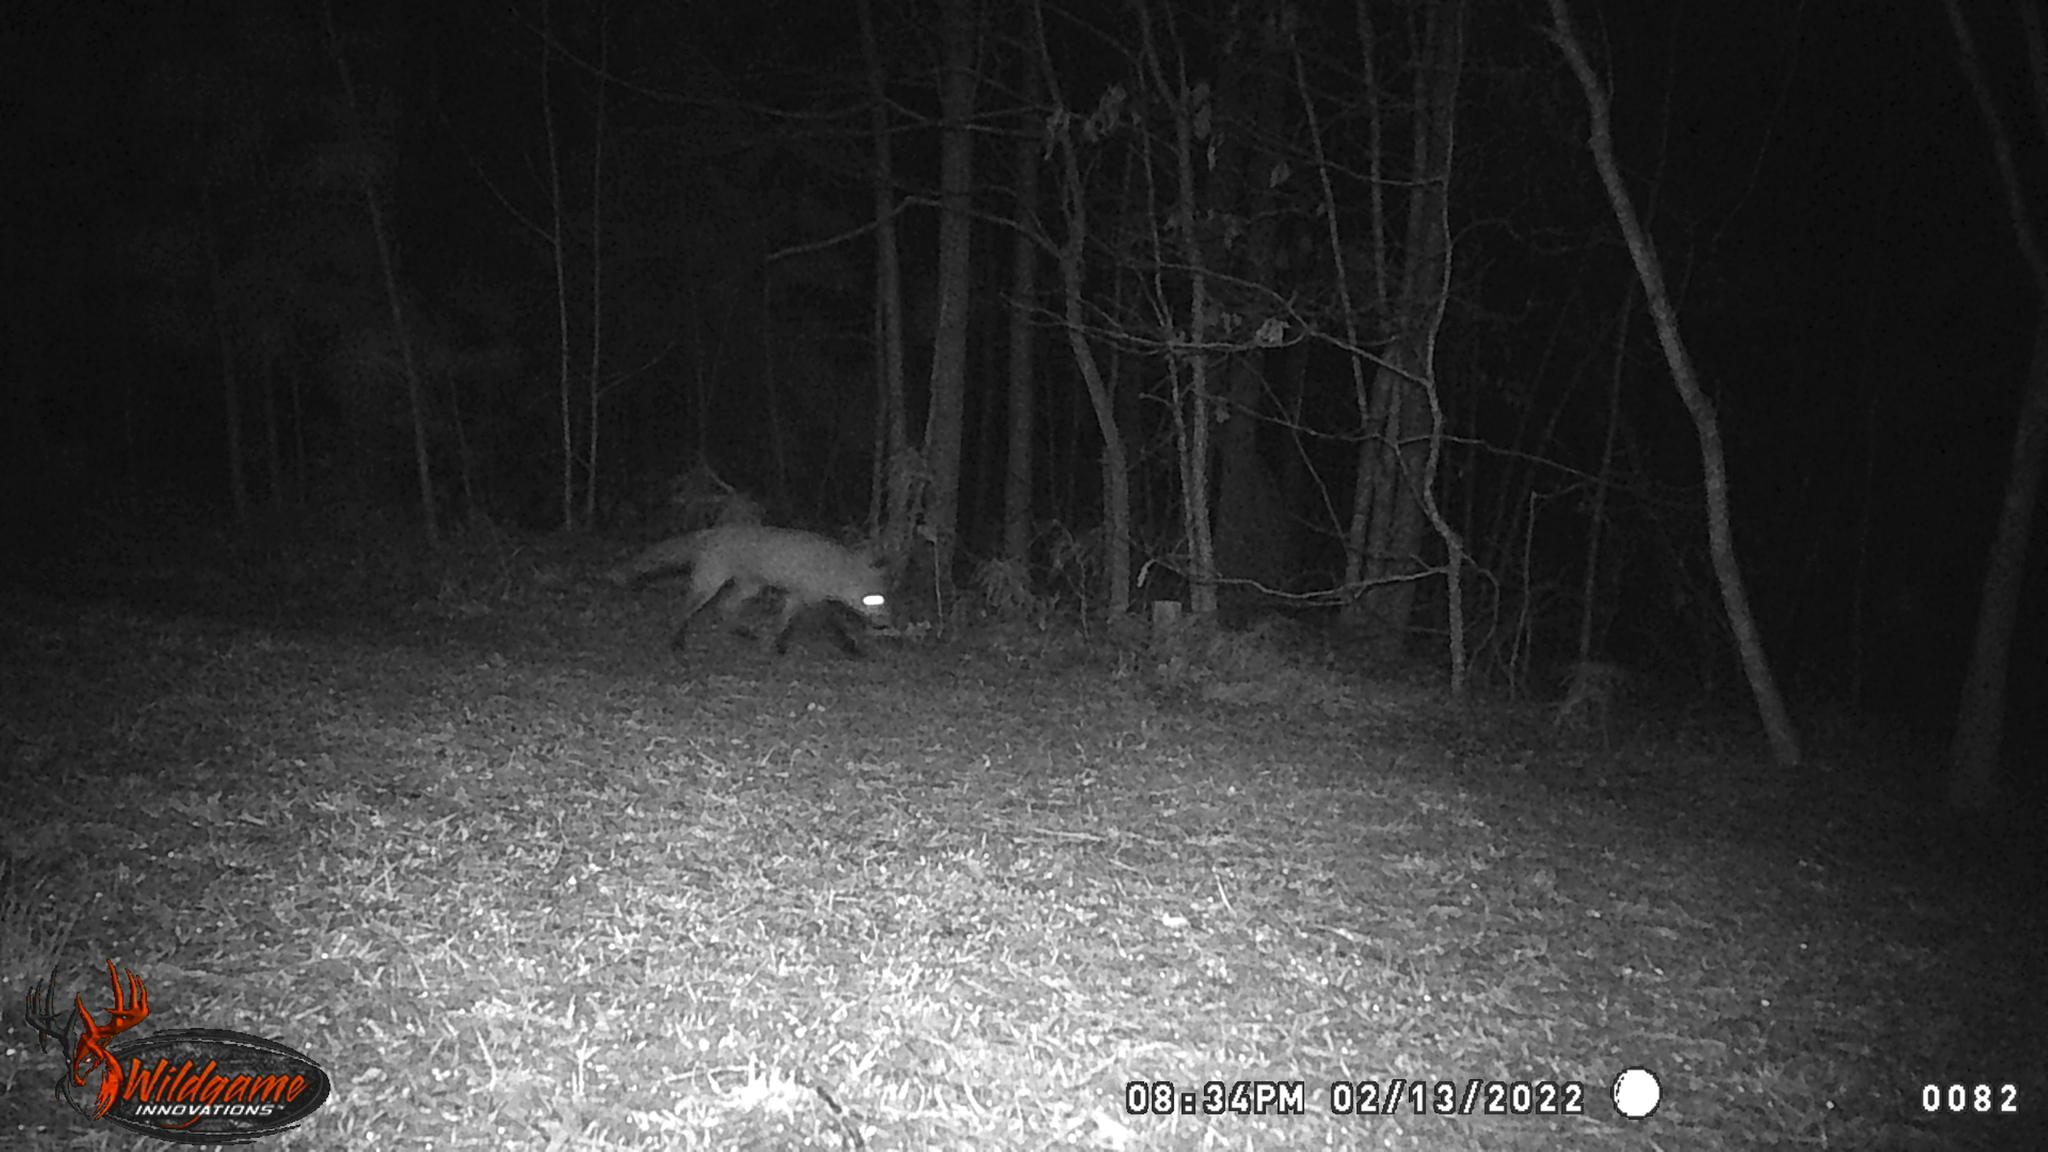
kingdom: Animalia
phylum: Chordata
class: Mammalia
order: Carnivora
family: Canidae
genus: Vulpes
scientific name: Vulpes vulpes
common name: Red fox
